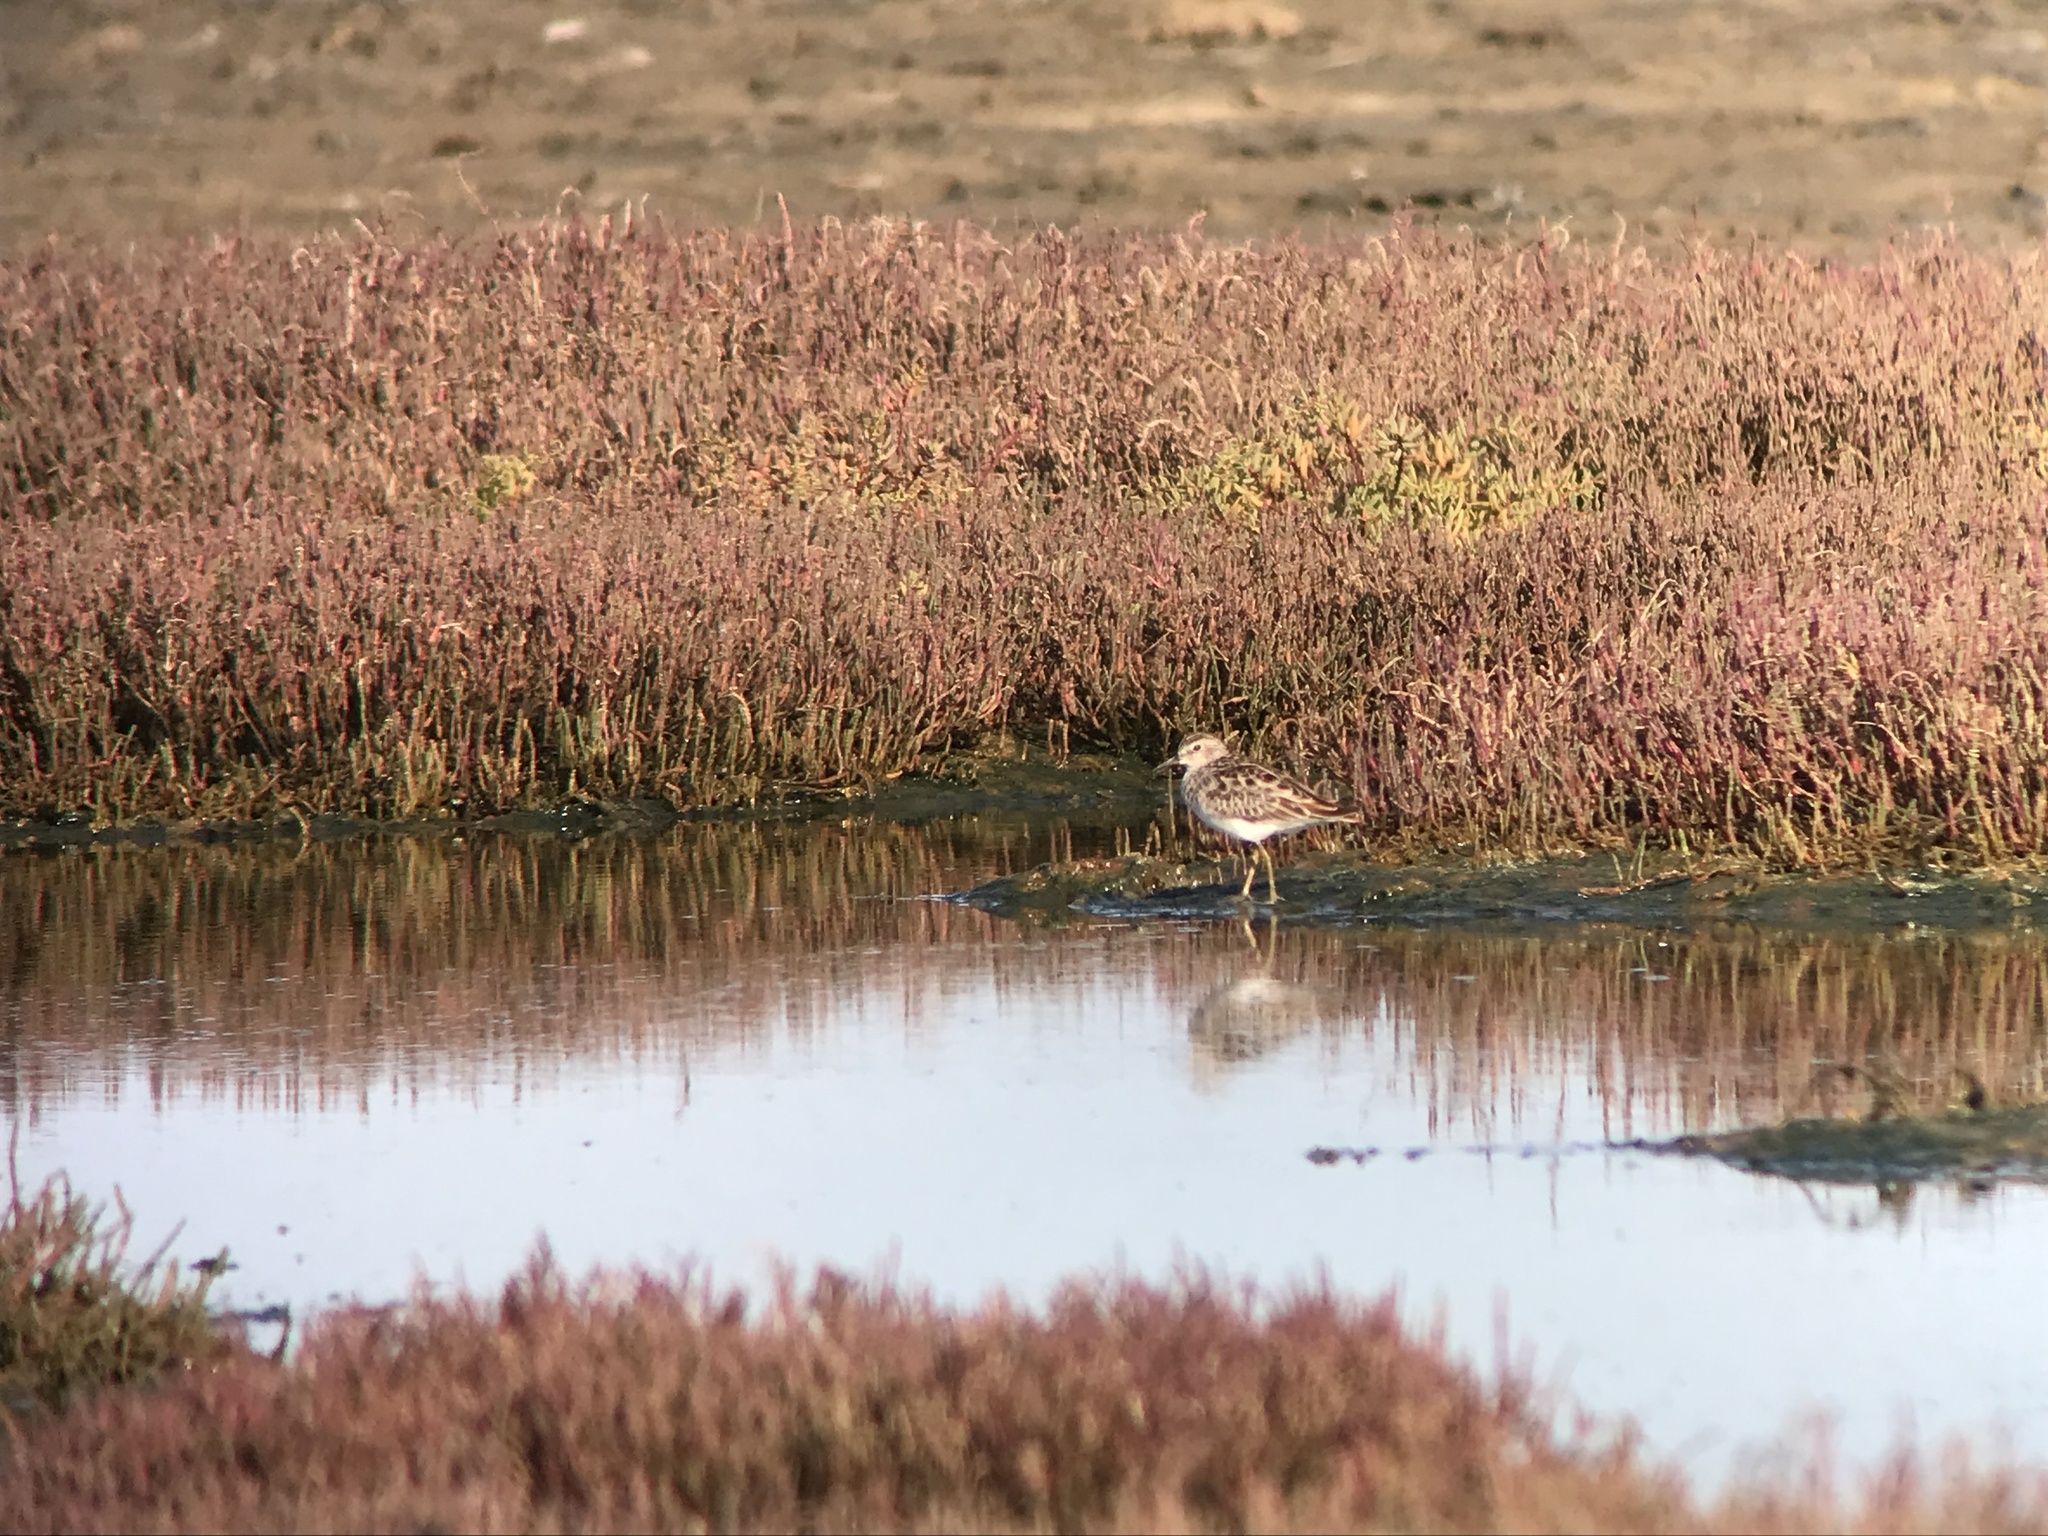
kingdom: Animalia
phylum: Chordata
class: Aves
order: Charadriiformes
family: Scolopacidae
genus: Calidris
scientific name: Calidris subminuta
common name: Long-toed stint
